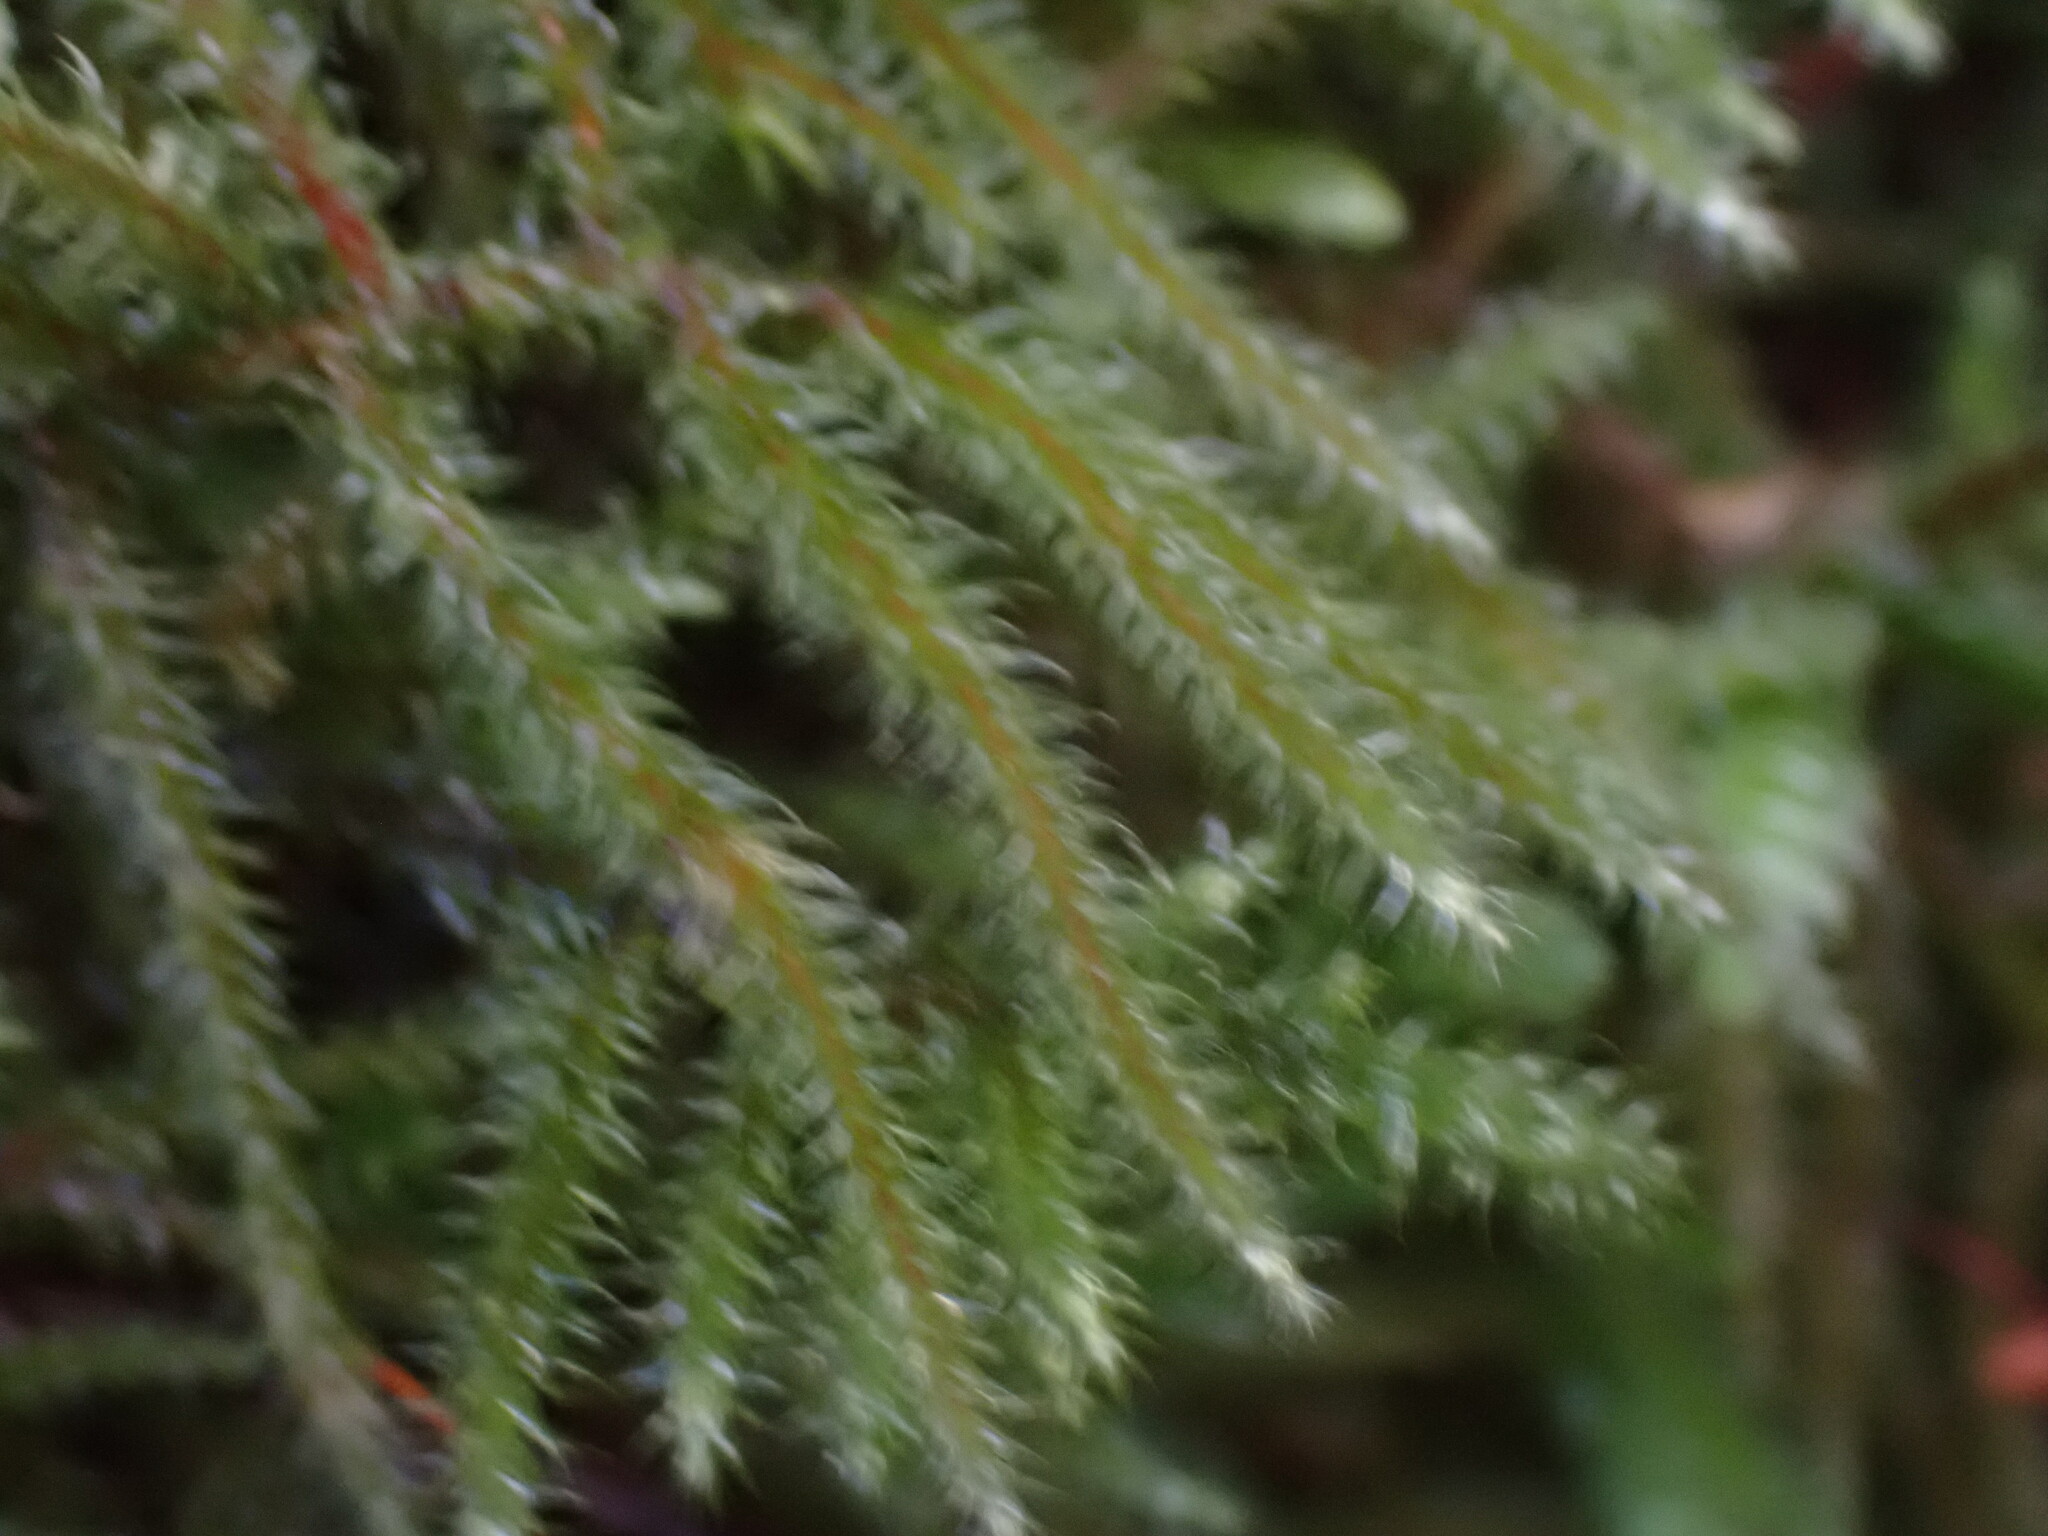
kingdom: Plantae
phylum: Bryophyta
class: Bryopsida
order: Hypnales
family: Hylocomiaceae
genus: Rhytidiadelphus
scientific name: Rhytidiadelphus loreus
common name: Lanky moss
